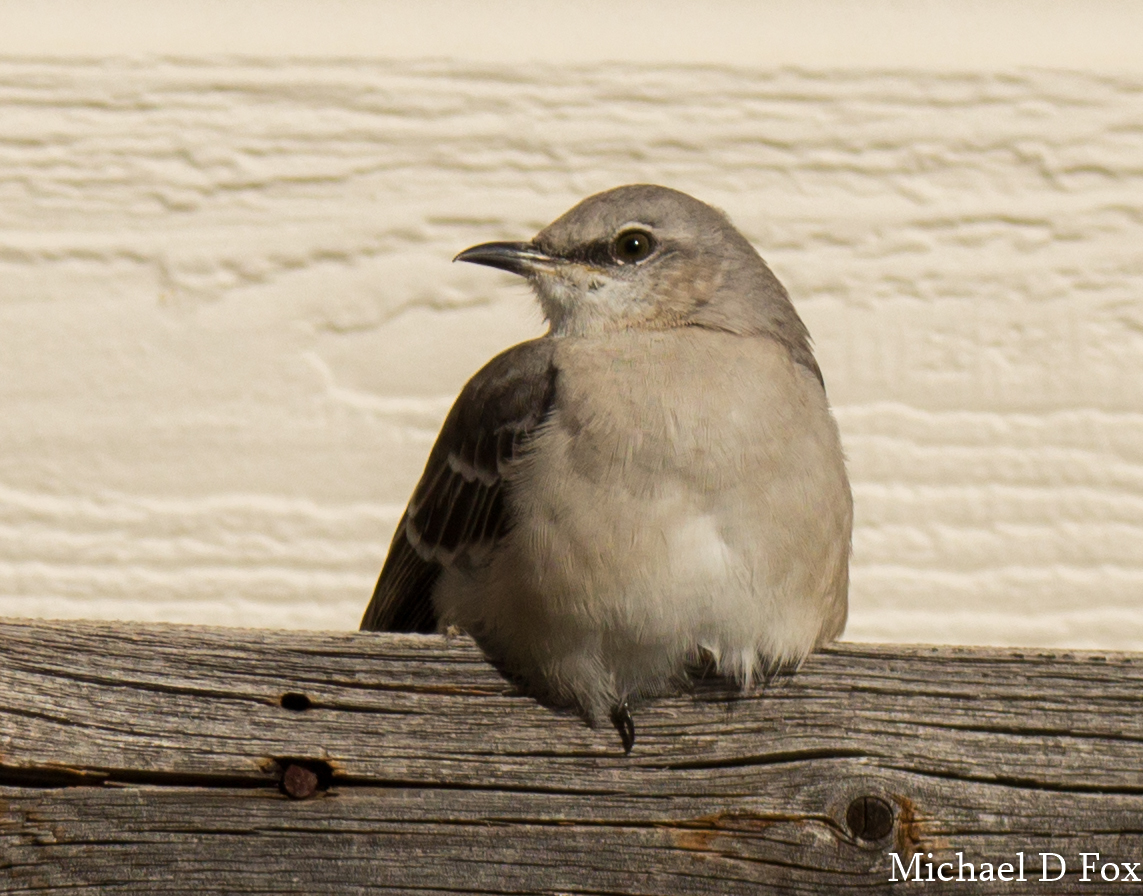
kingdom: Animalia
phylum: Chordata
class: Aves
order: Passeriformes
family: Mimidae
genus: Mimus
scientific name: Mimus polyglottos
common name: Northern mockingbird
